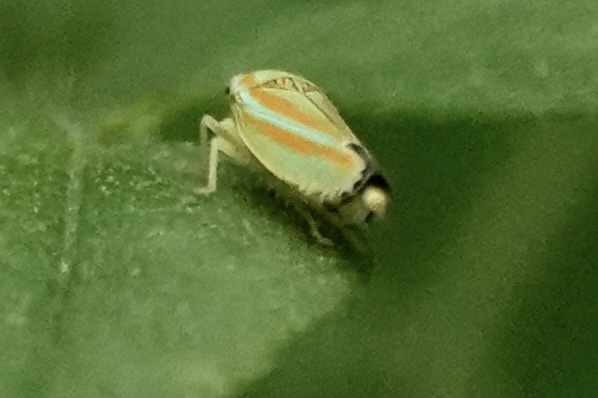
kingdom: Animalia
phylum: Arthropoda
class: Insecta
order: Hemiptera
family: Cicadellidae
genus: Graphocephala
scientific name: Graphocephala versuta
